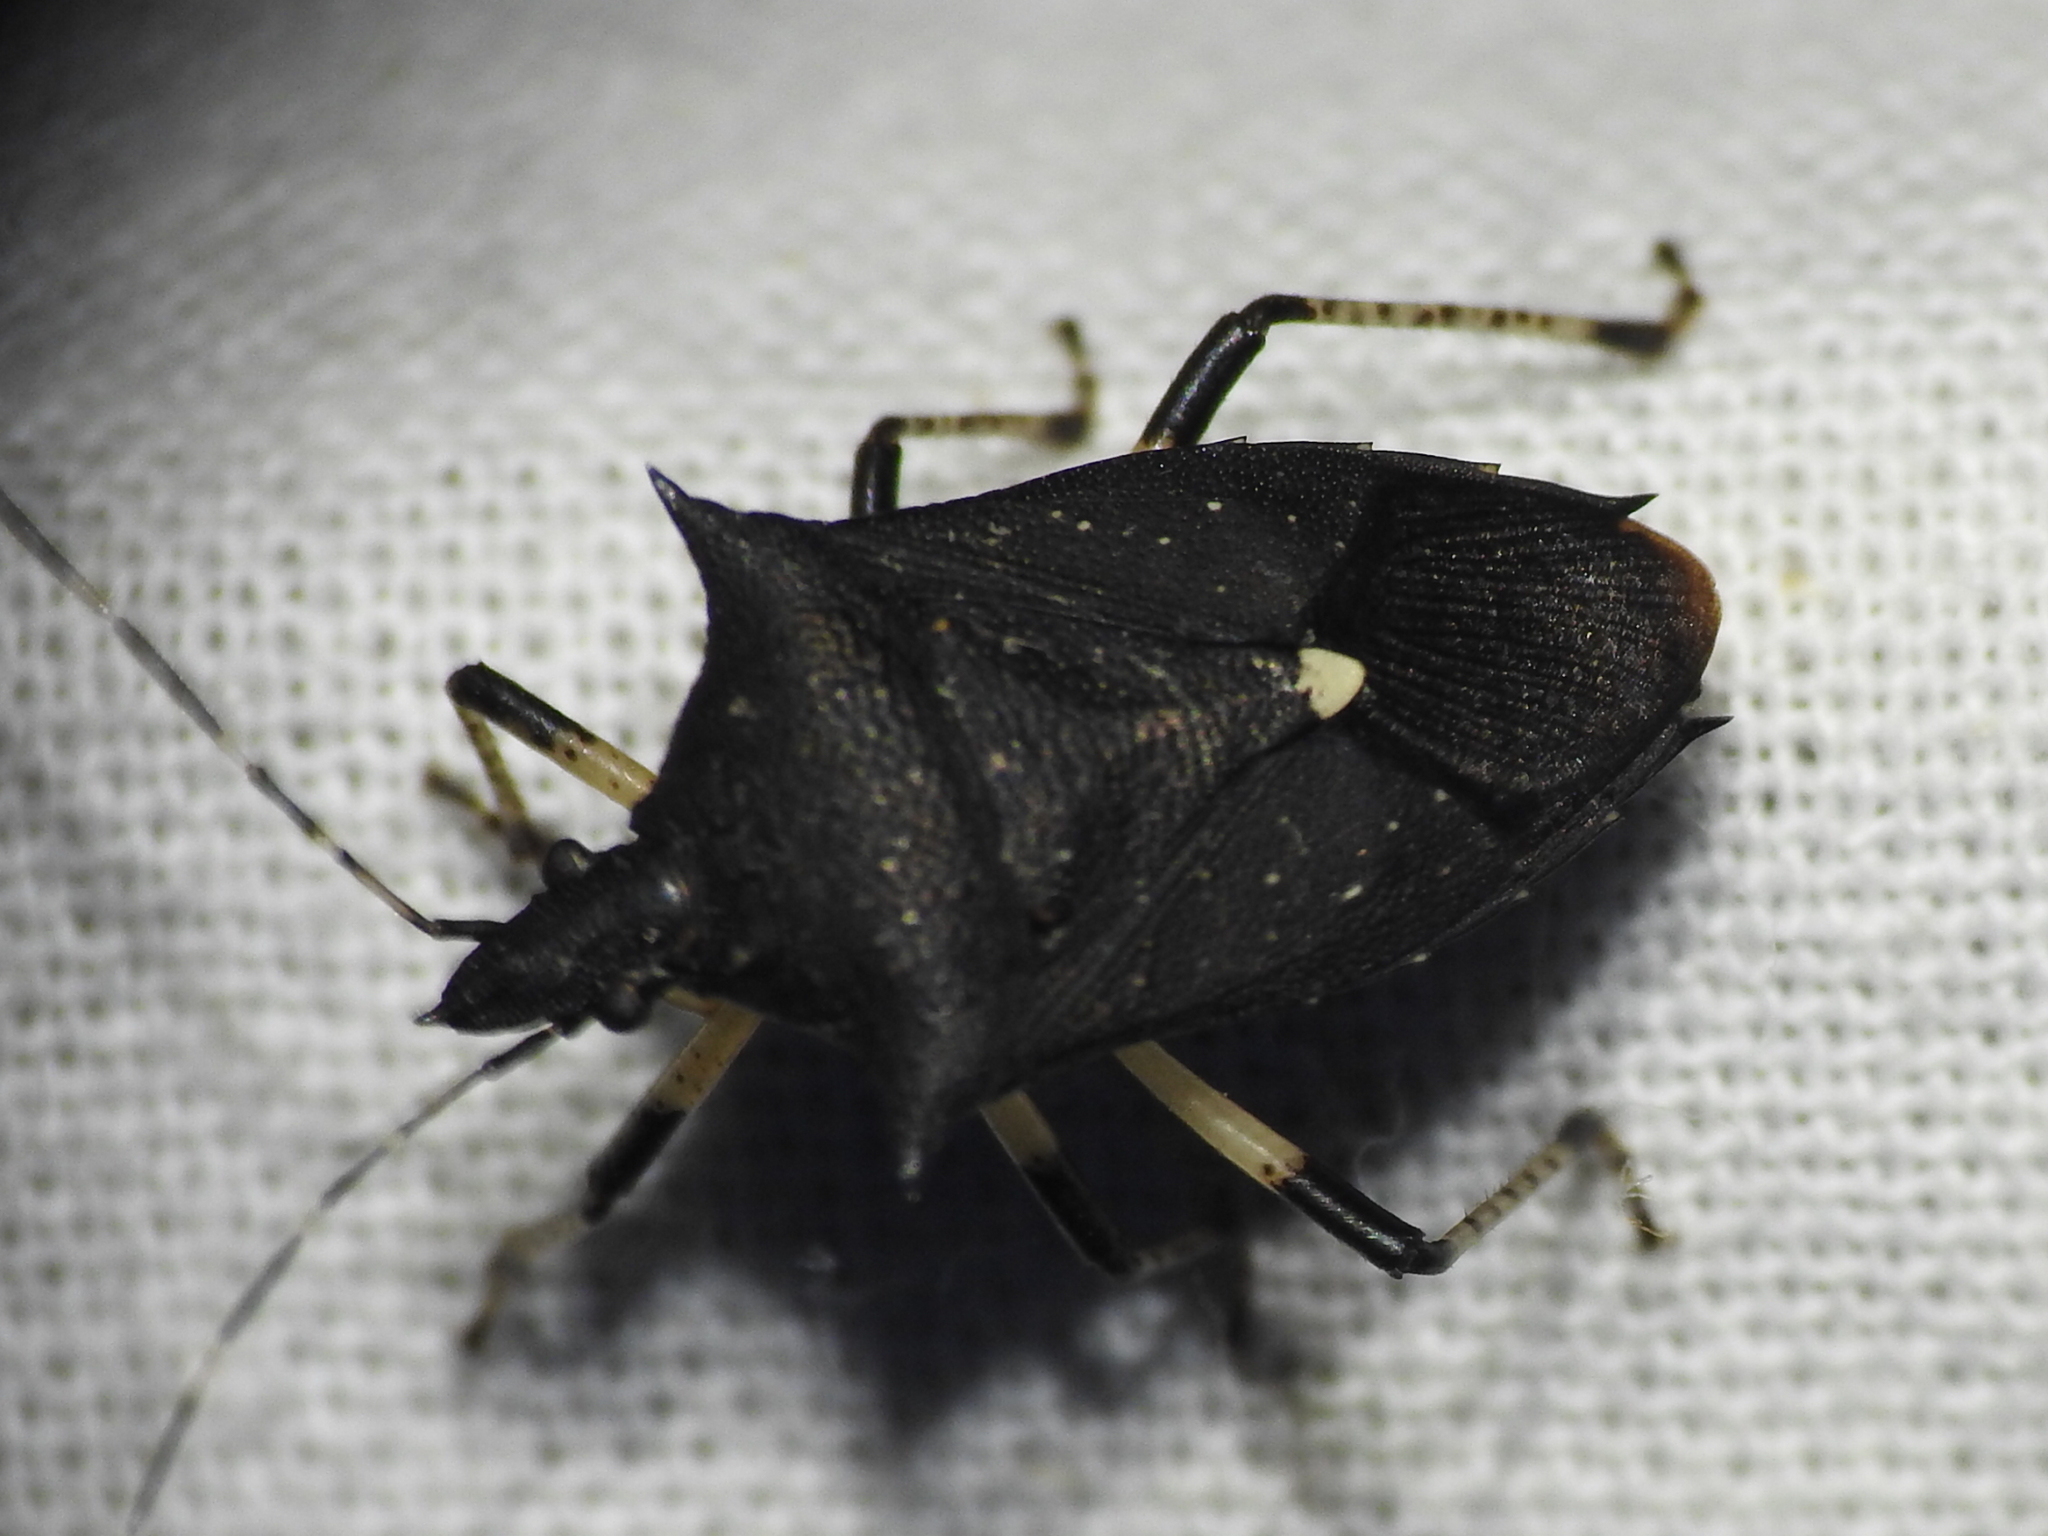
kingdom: Animalia
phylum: Arthropoda
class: Insecta
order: Hemiptera
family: Pentatomidae
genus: Proxys
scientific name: Proxys punctulatus
